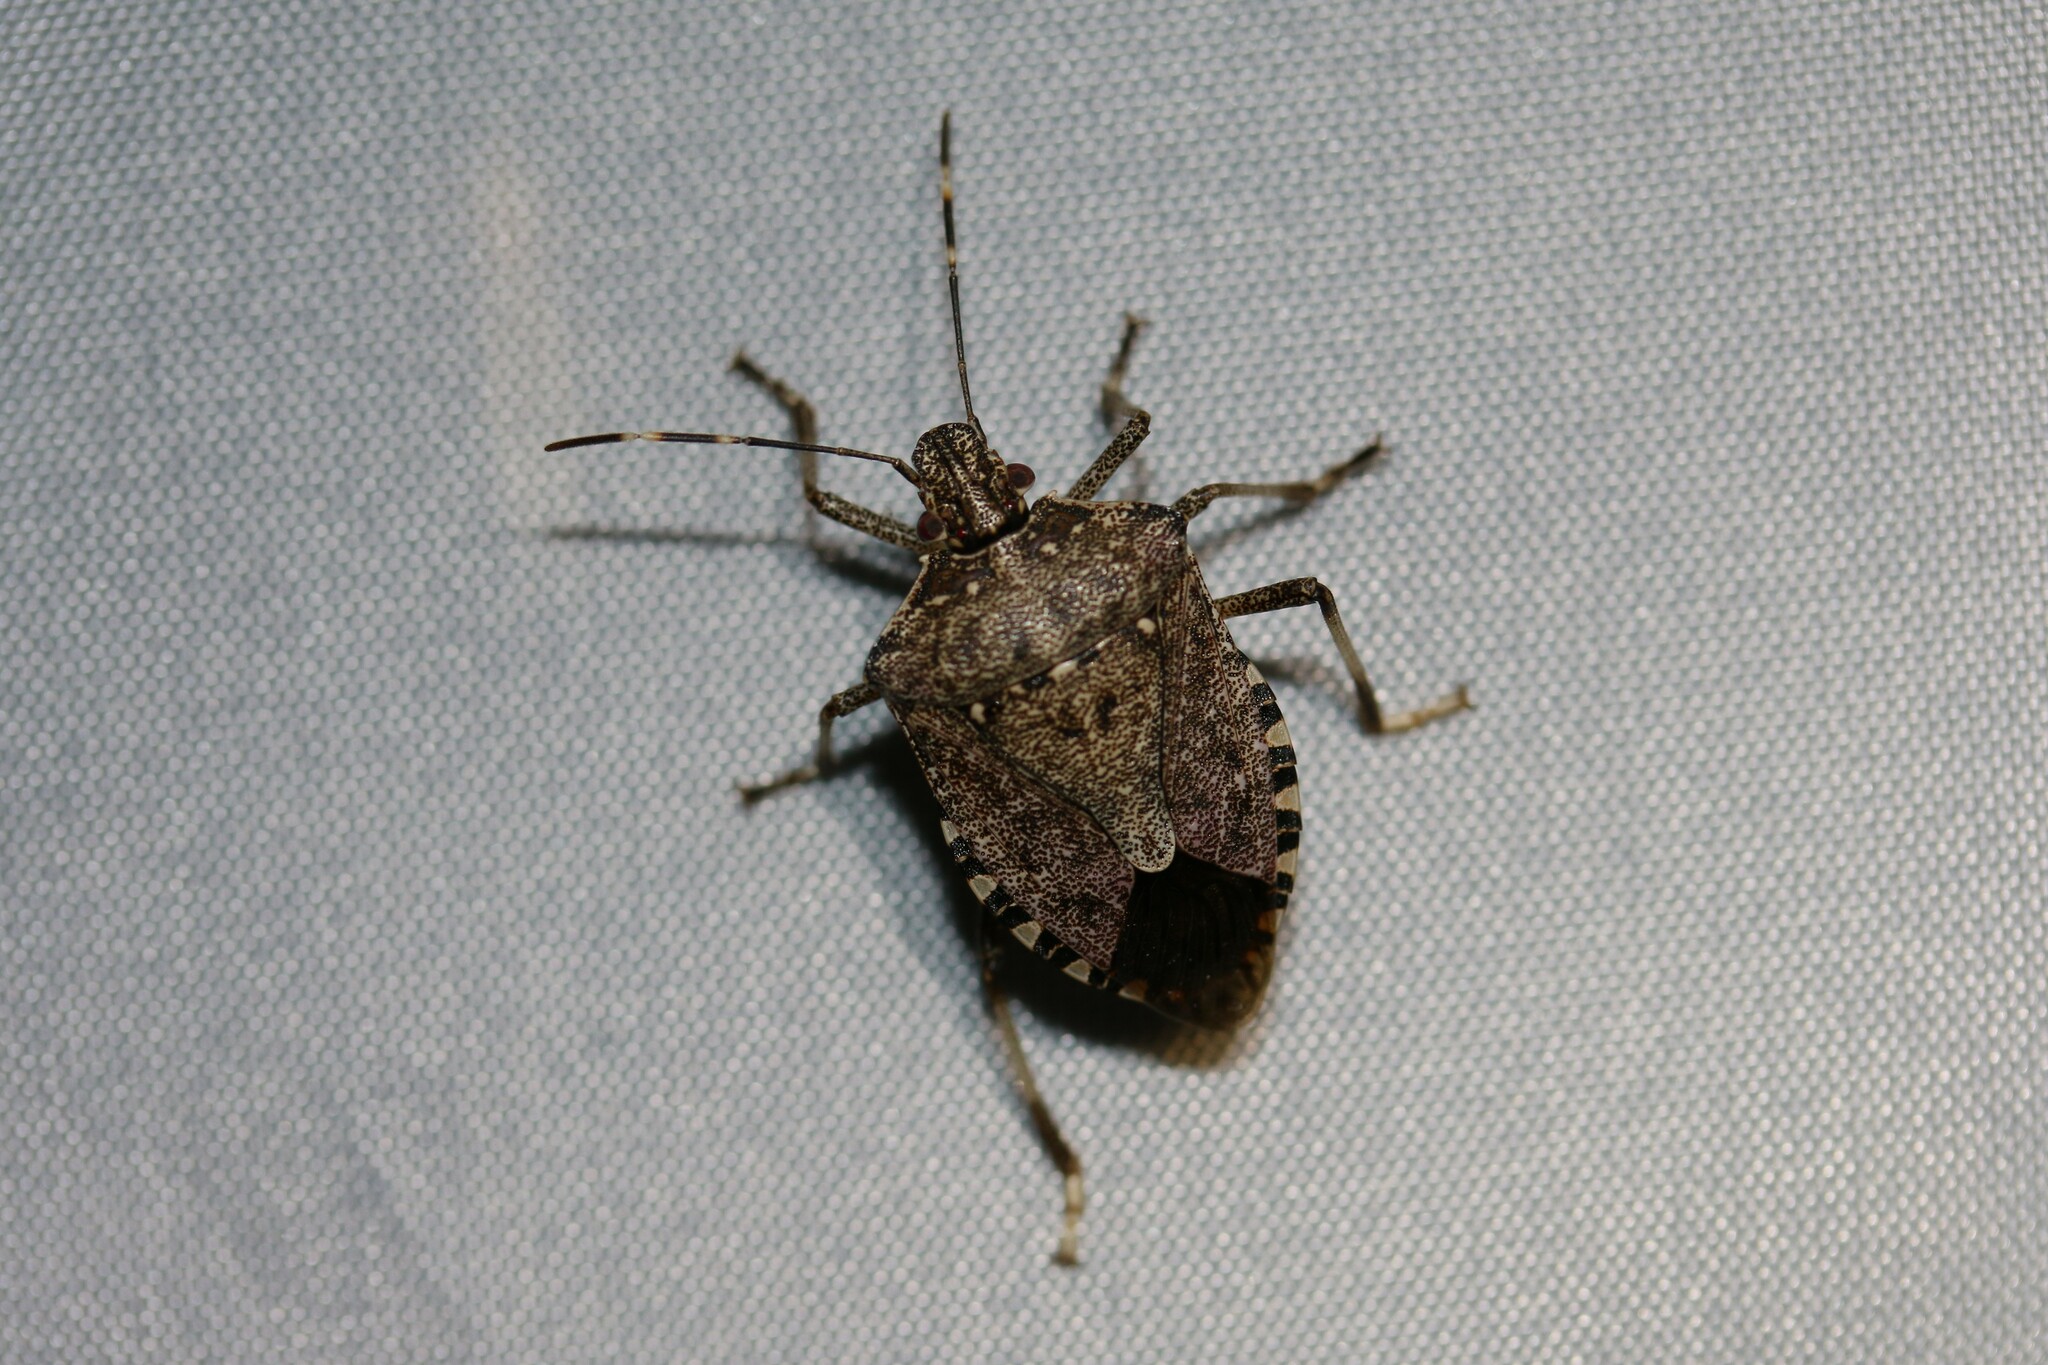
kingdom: Animalia
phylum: Arthropoda
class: Insecta
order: Hemiptera
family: Pentatomidae
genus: Halyomorpha
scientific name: Halyomorpha halys
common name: Brown marmorated stink bug
